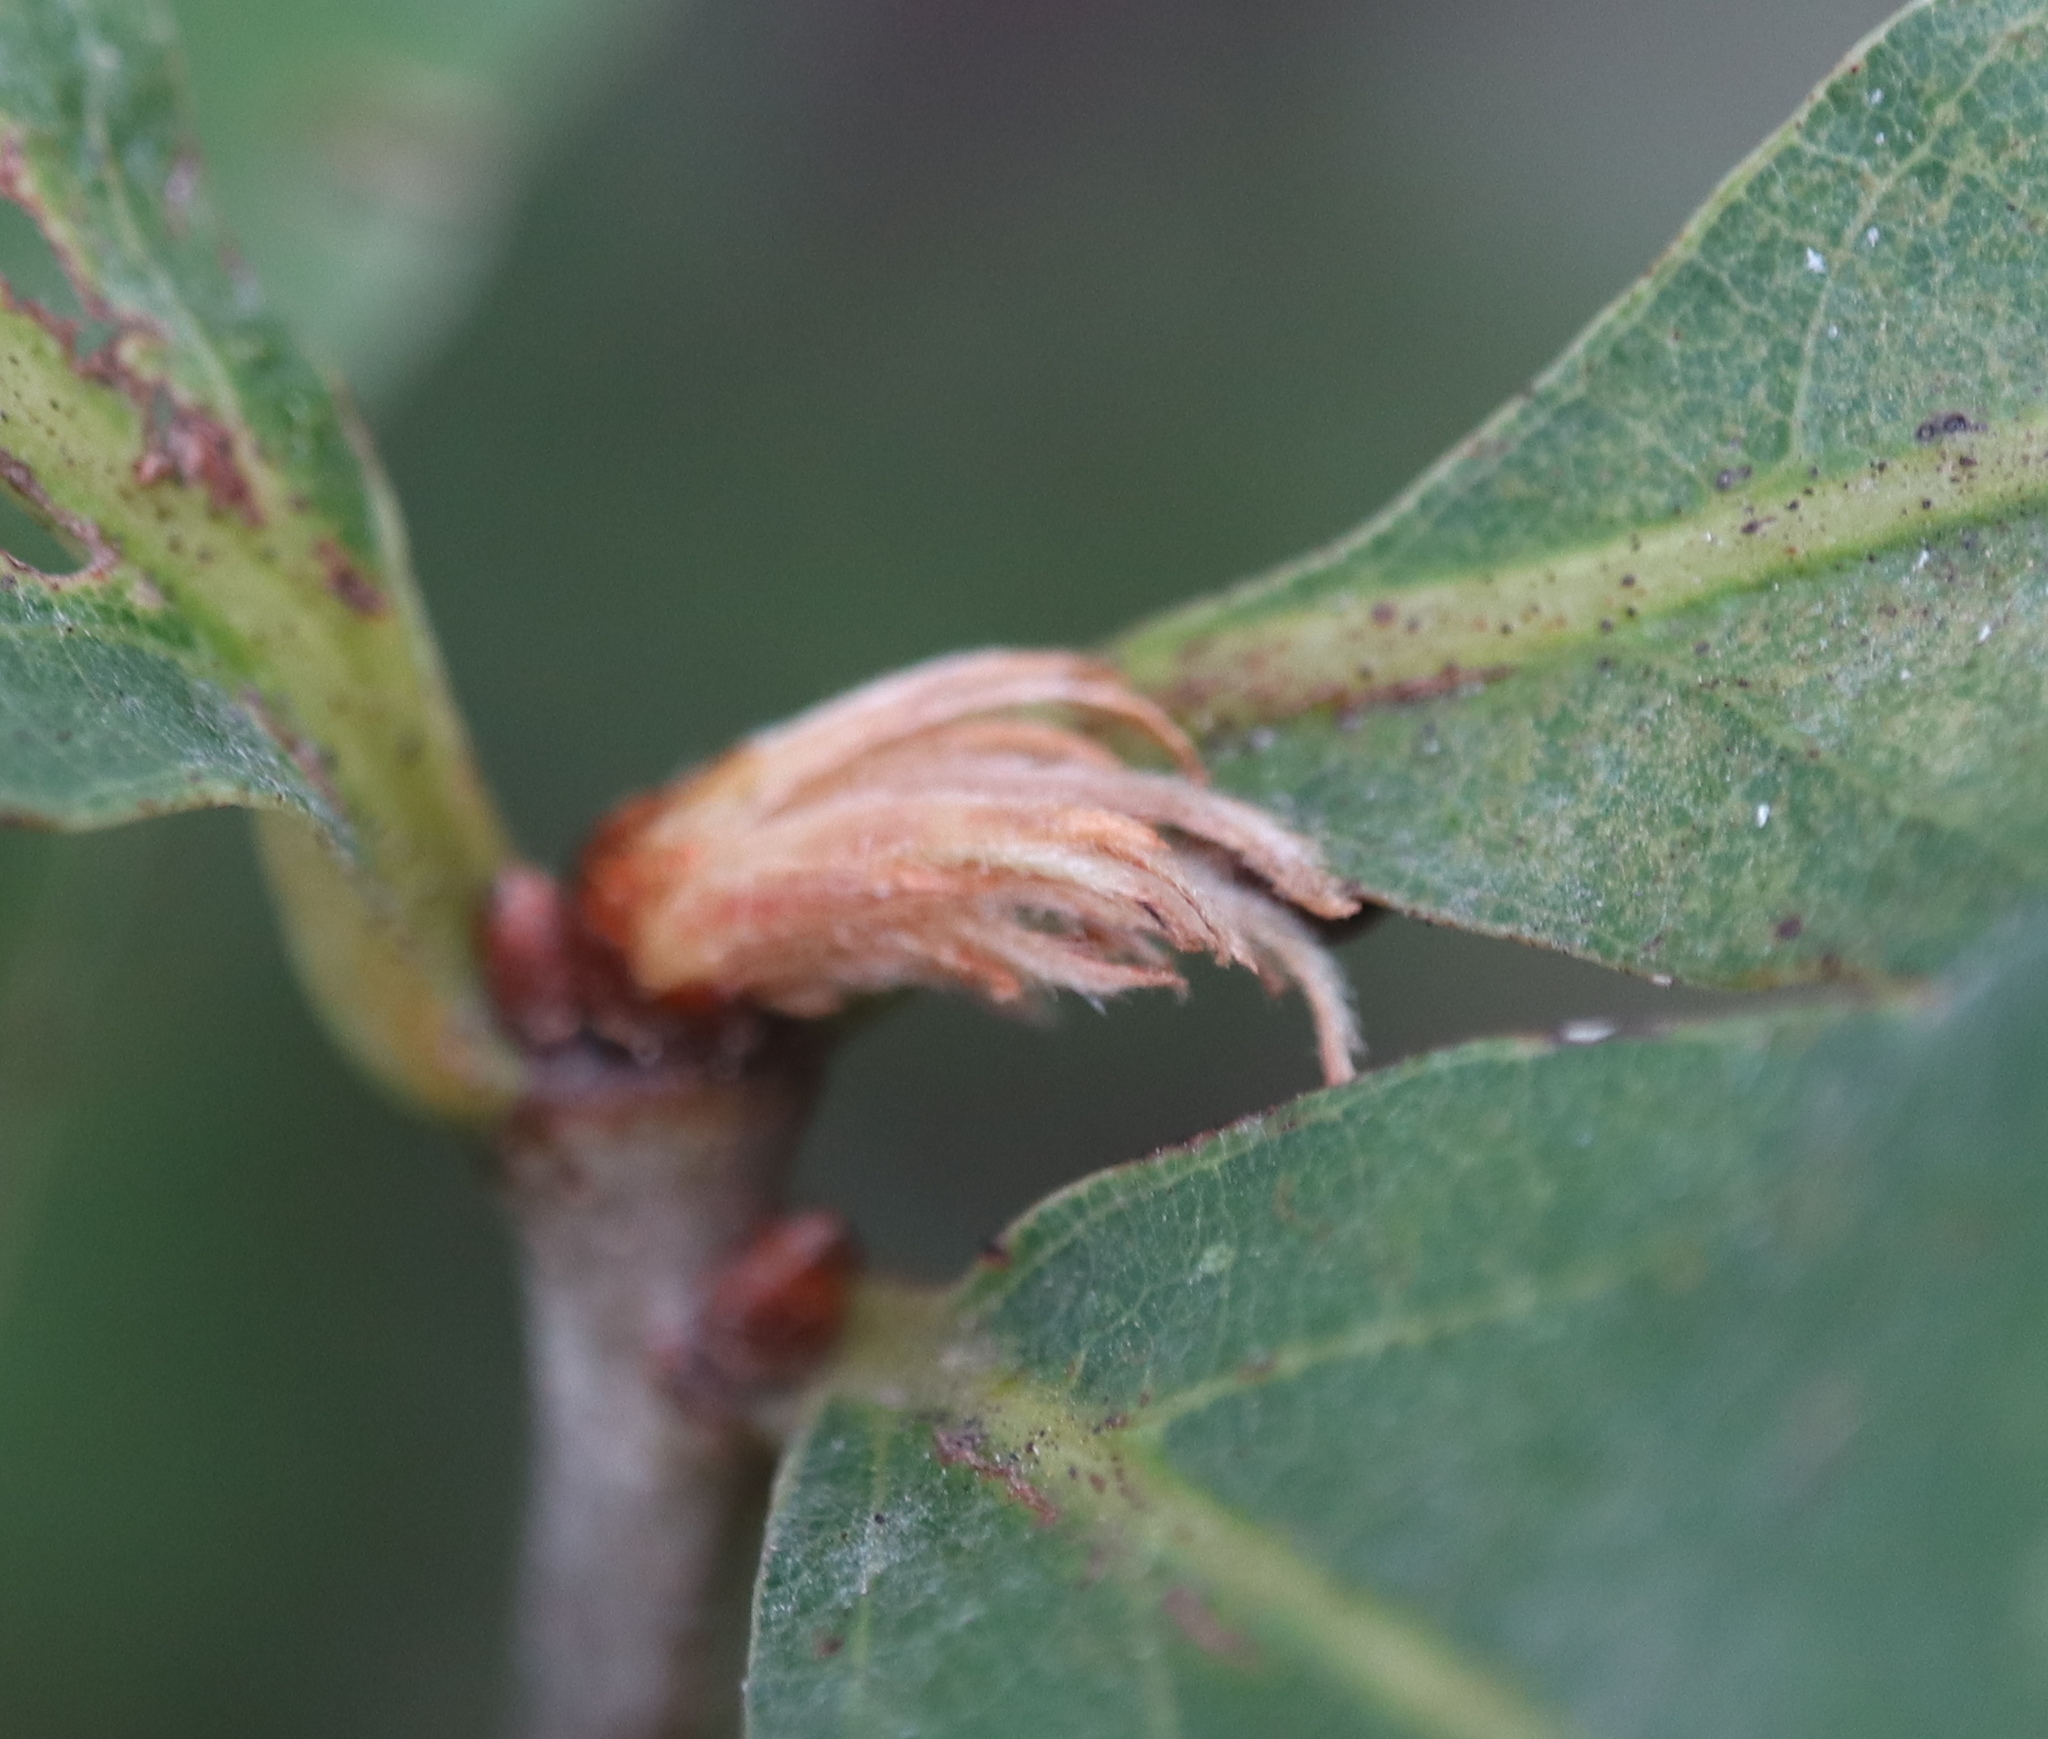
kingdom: Animalia
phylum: Arthropoda
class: Insecta
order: Hymenoptera
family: Cynipidae
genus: Andricus
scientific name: Andricus
